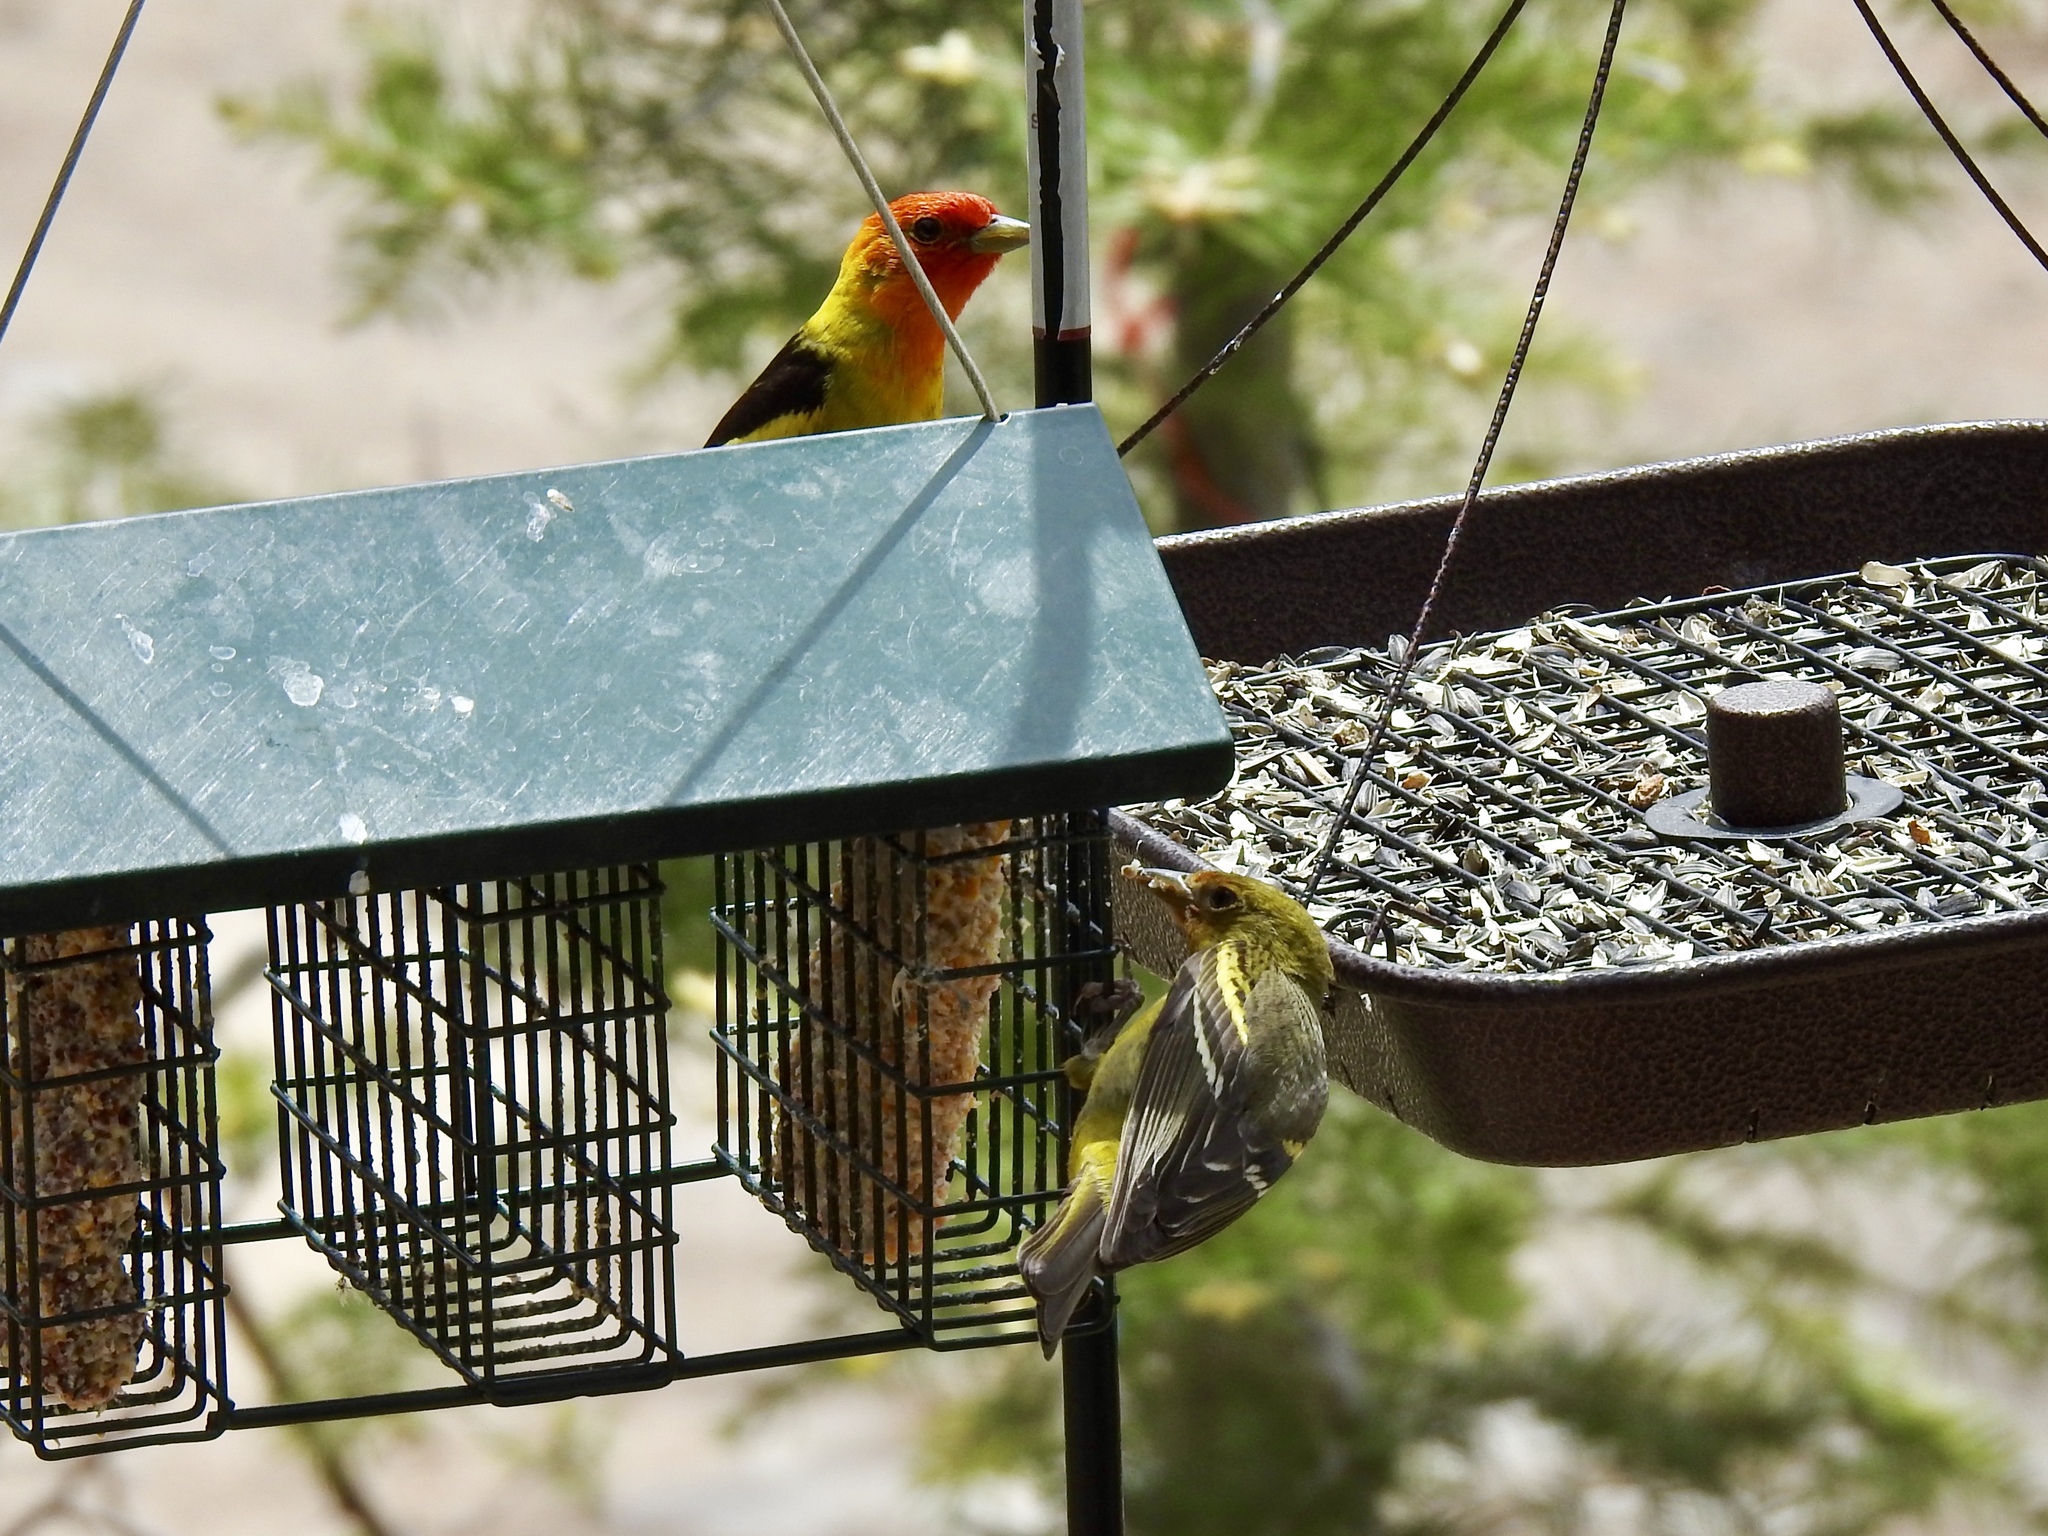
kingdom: Animalia
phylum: Chordata
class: Aves
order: Passeriformes
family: Cardinalidae
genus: Piranga
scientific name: Piranga ludoviciana
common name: Western tanager
